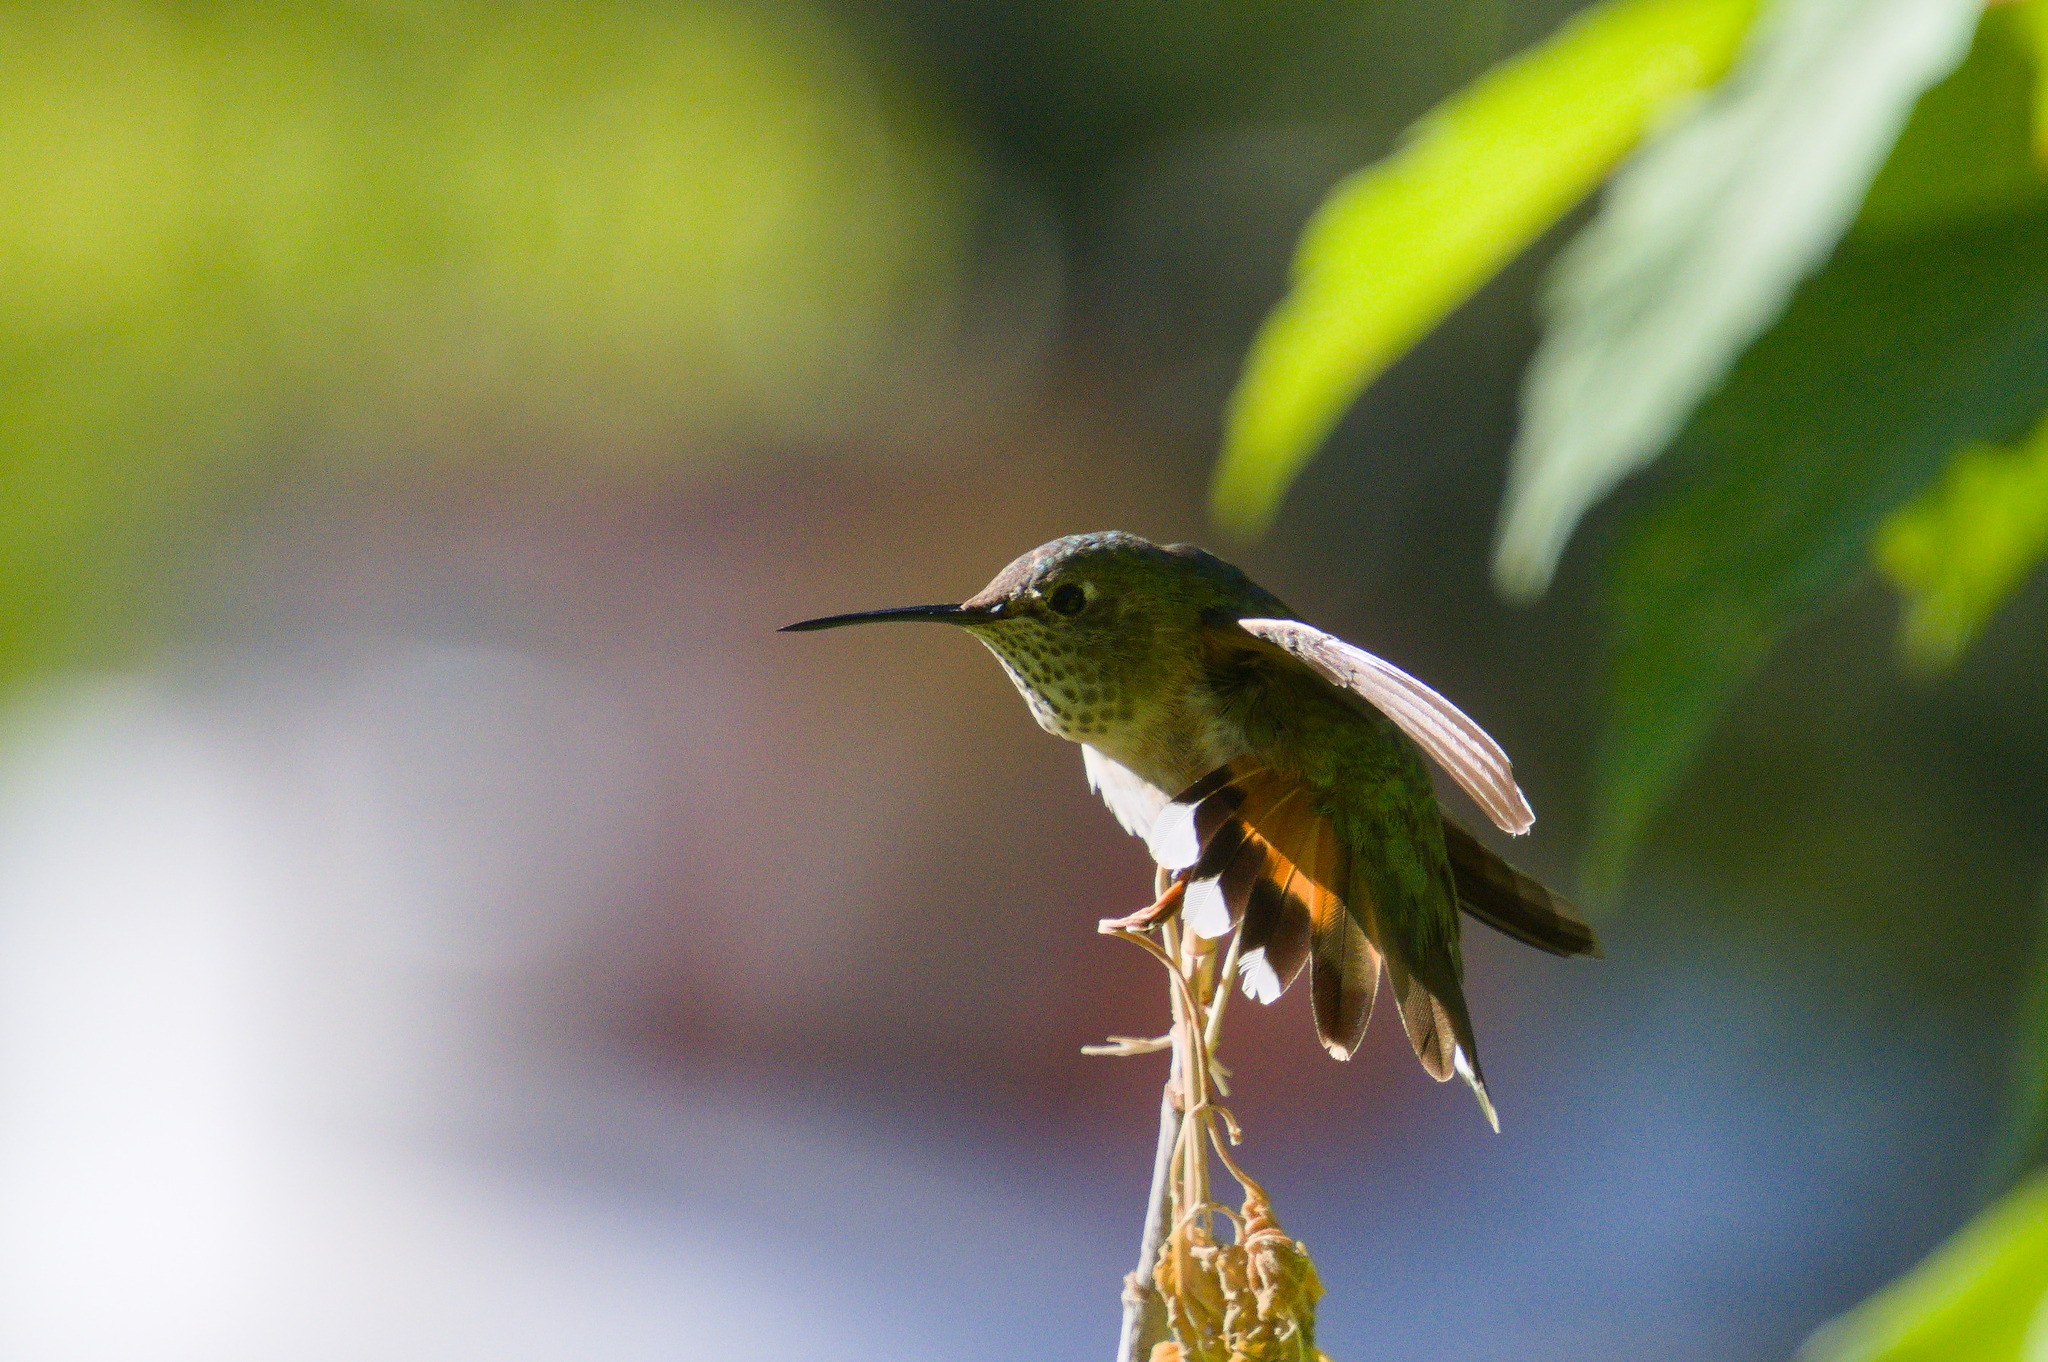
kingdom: Animalia
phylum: Chordata
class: Aves
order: Apodiformes
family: Trochilidae
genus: Selasphorus
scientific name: Selasphorus platycercus
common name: Broad-tailed hummingbird
